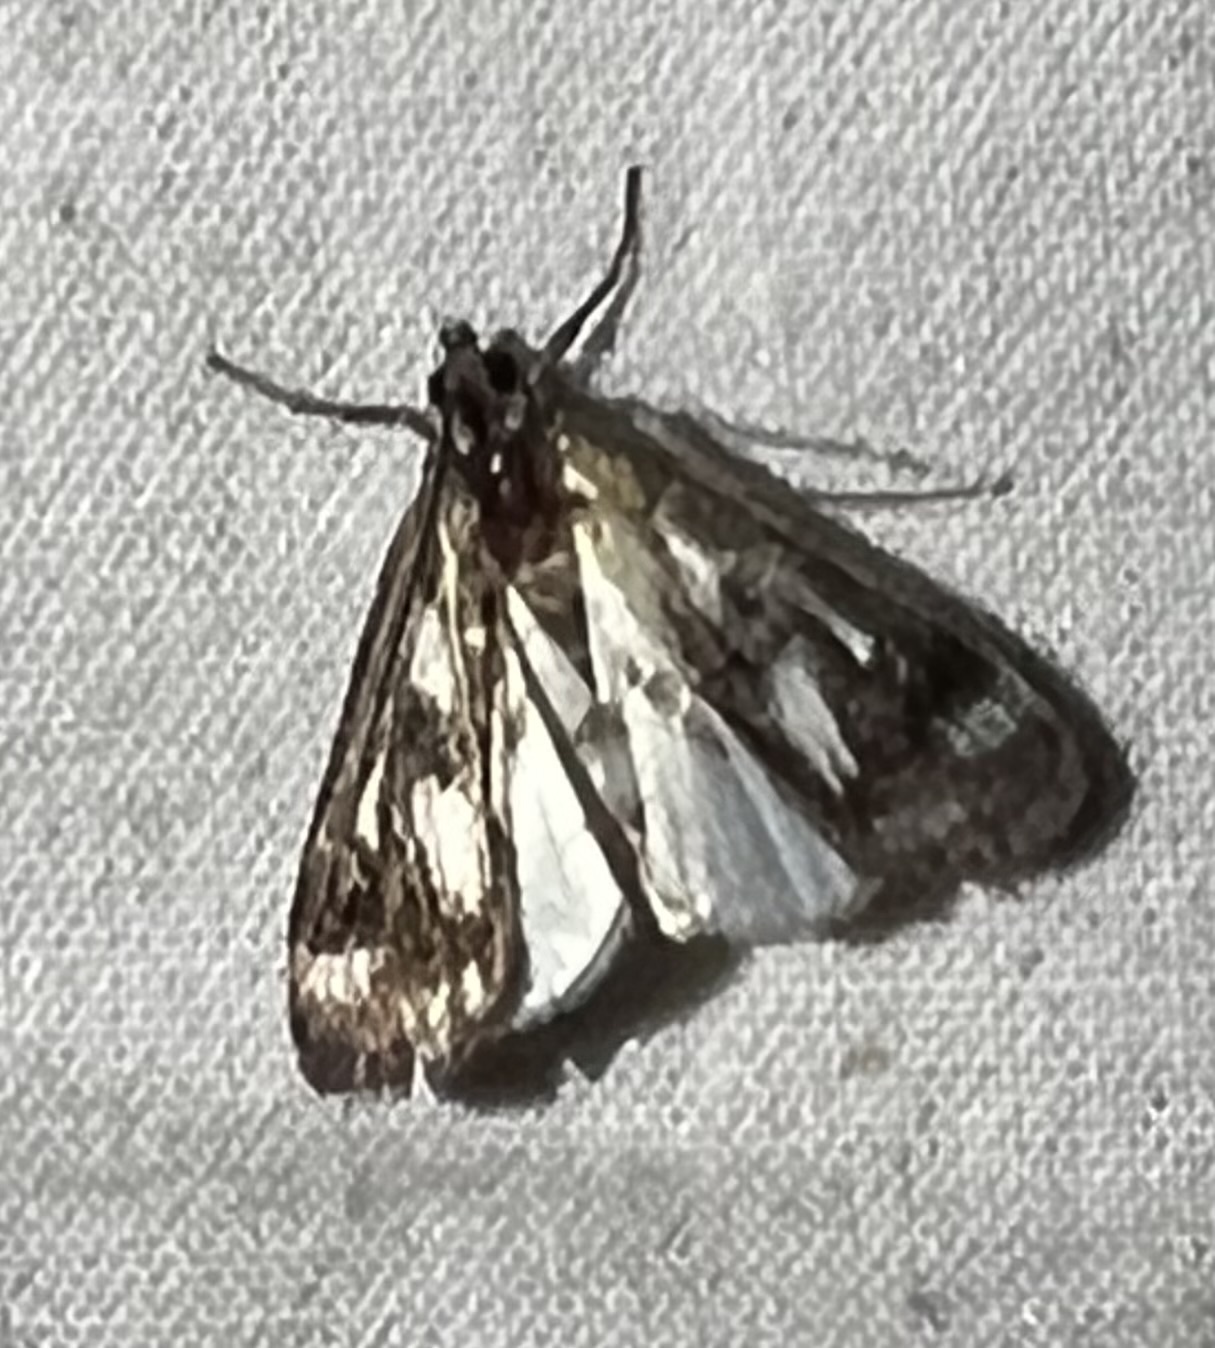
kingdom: Animalia
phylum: Arthropoda
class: Insecta
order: Lepidoptera
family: Crambidae
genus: Parapoynx
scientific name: Parapoynx maculalis
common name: Polymorphic pondweed moth
